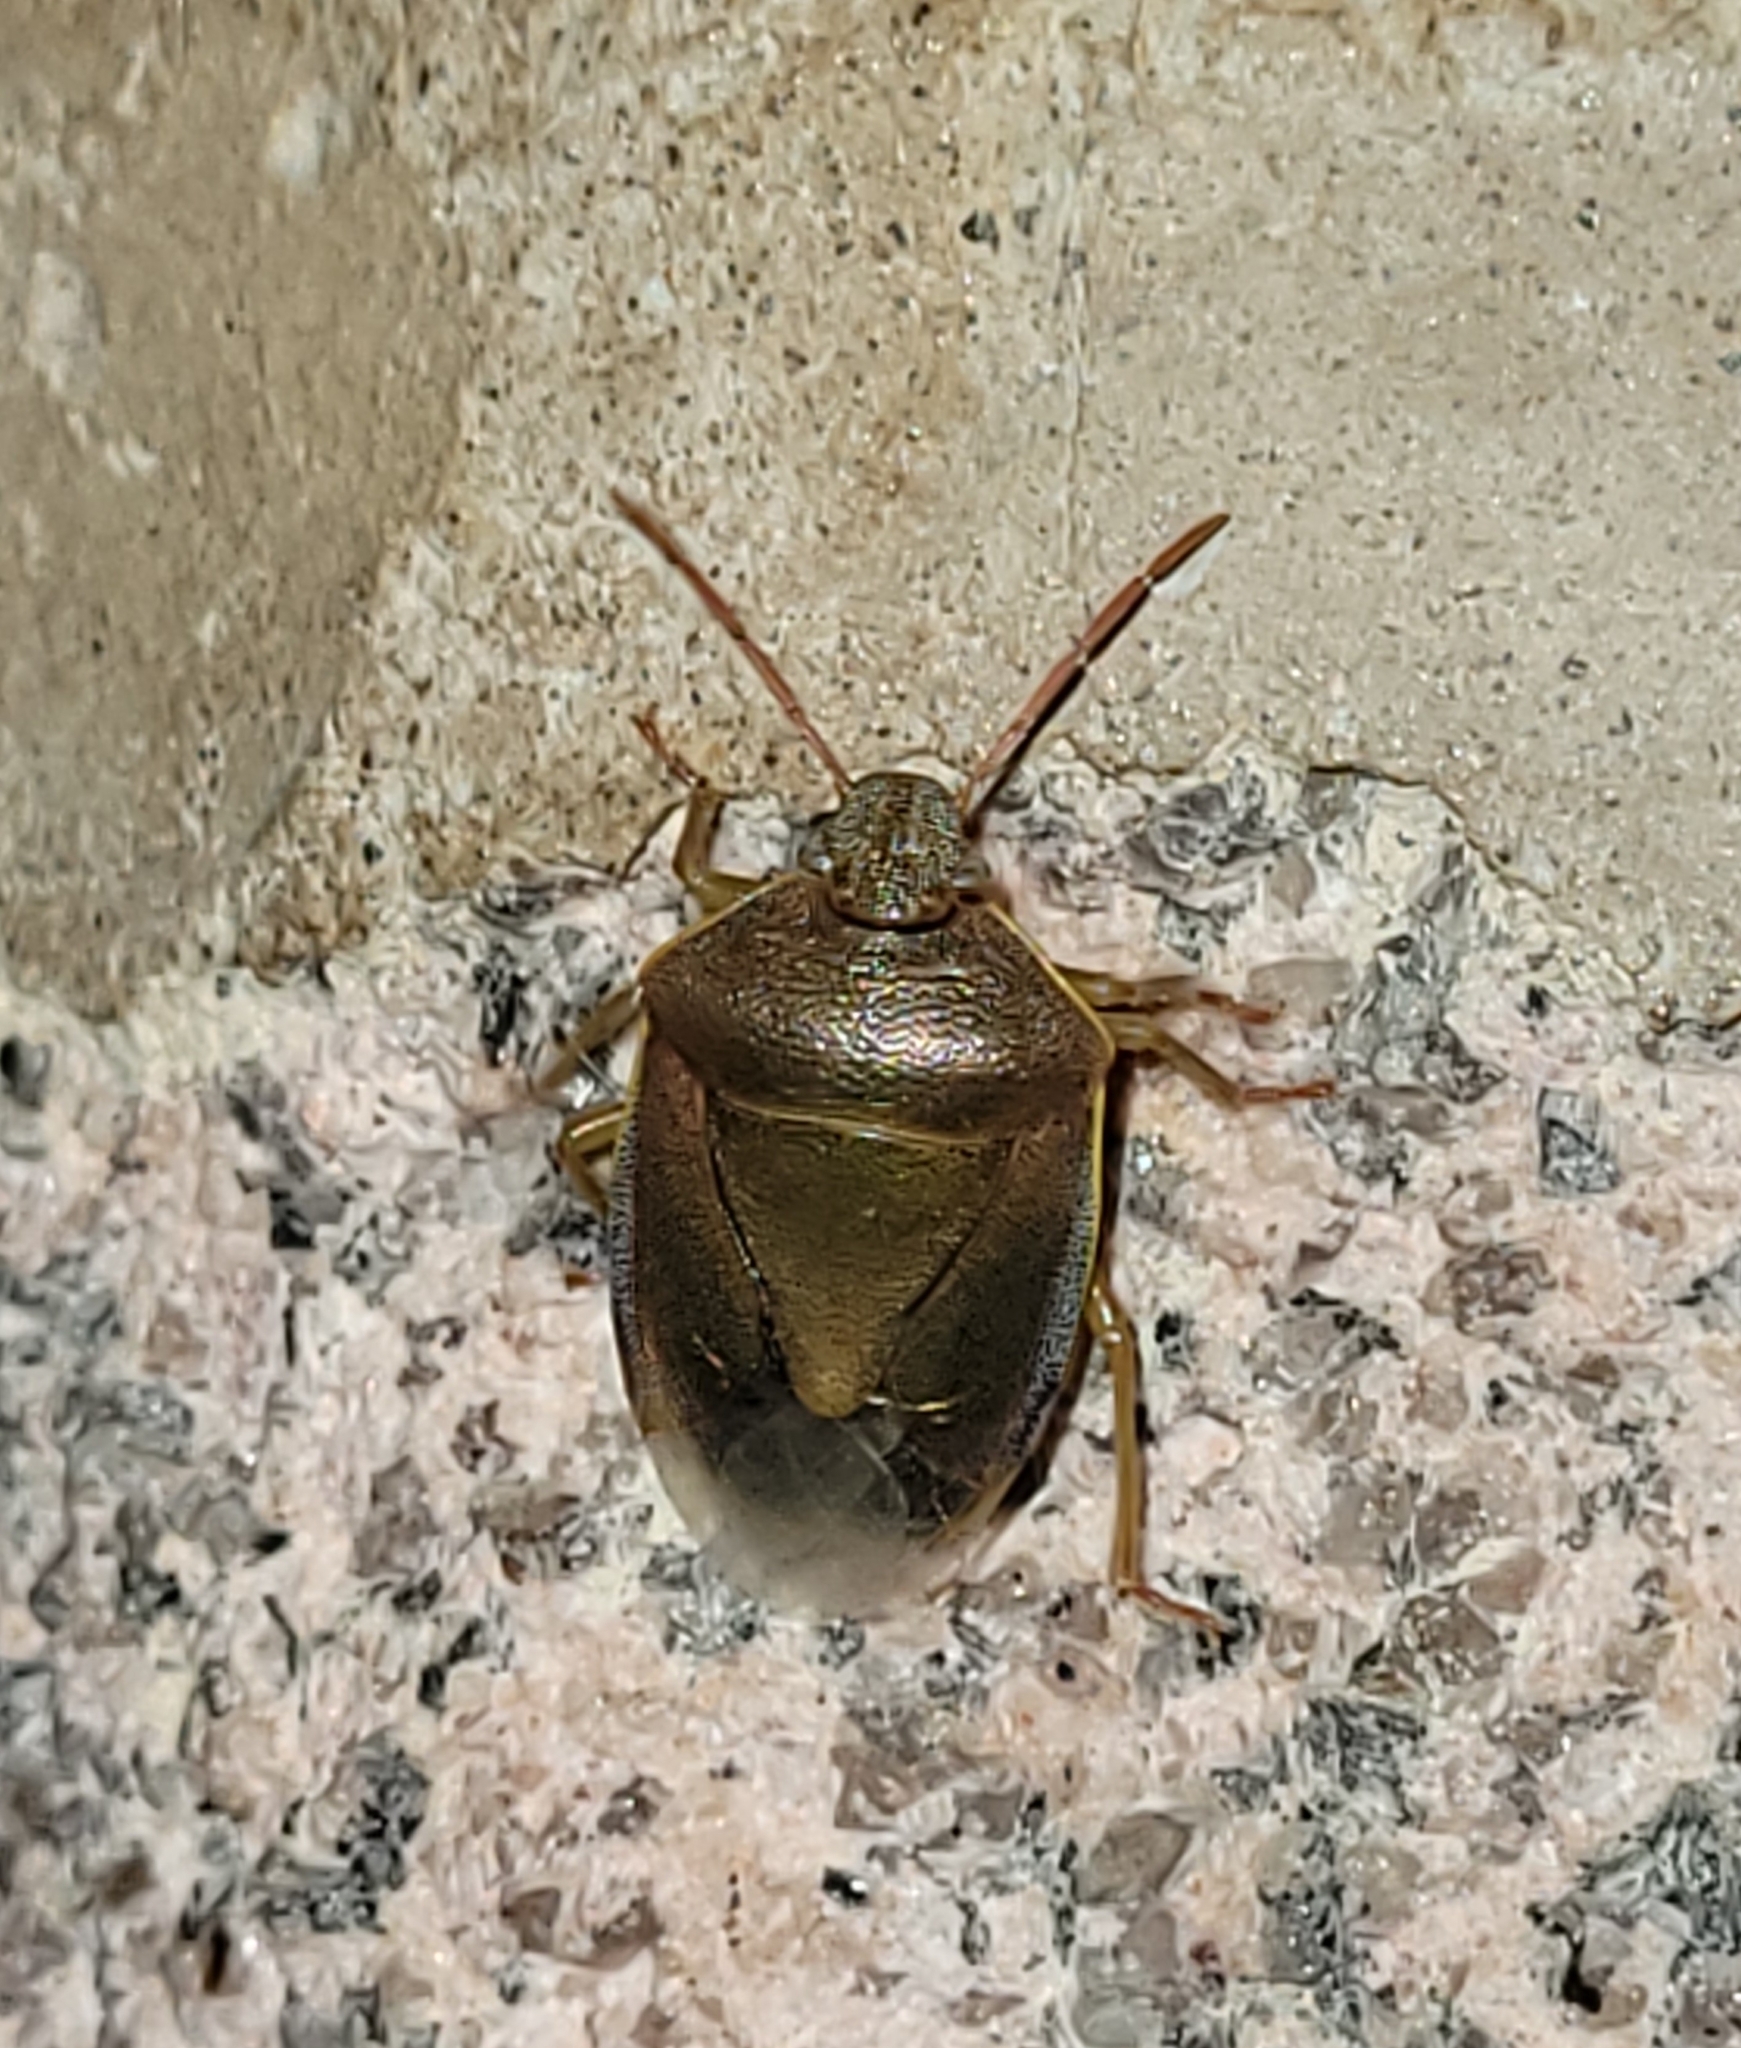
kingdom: Animalia
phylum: Arthropoda
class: Insecta
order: Hemiptera
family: Pentatomidae
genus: Piezodorus
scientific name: Piezodorus lituratus
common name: Stink bug
